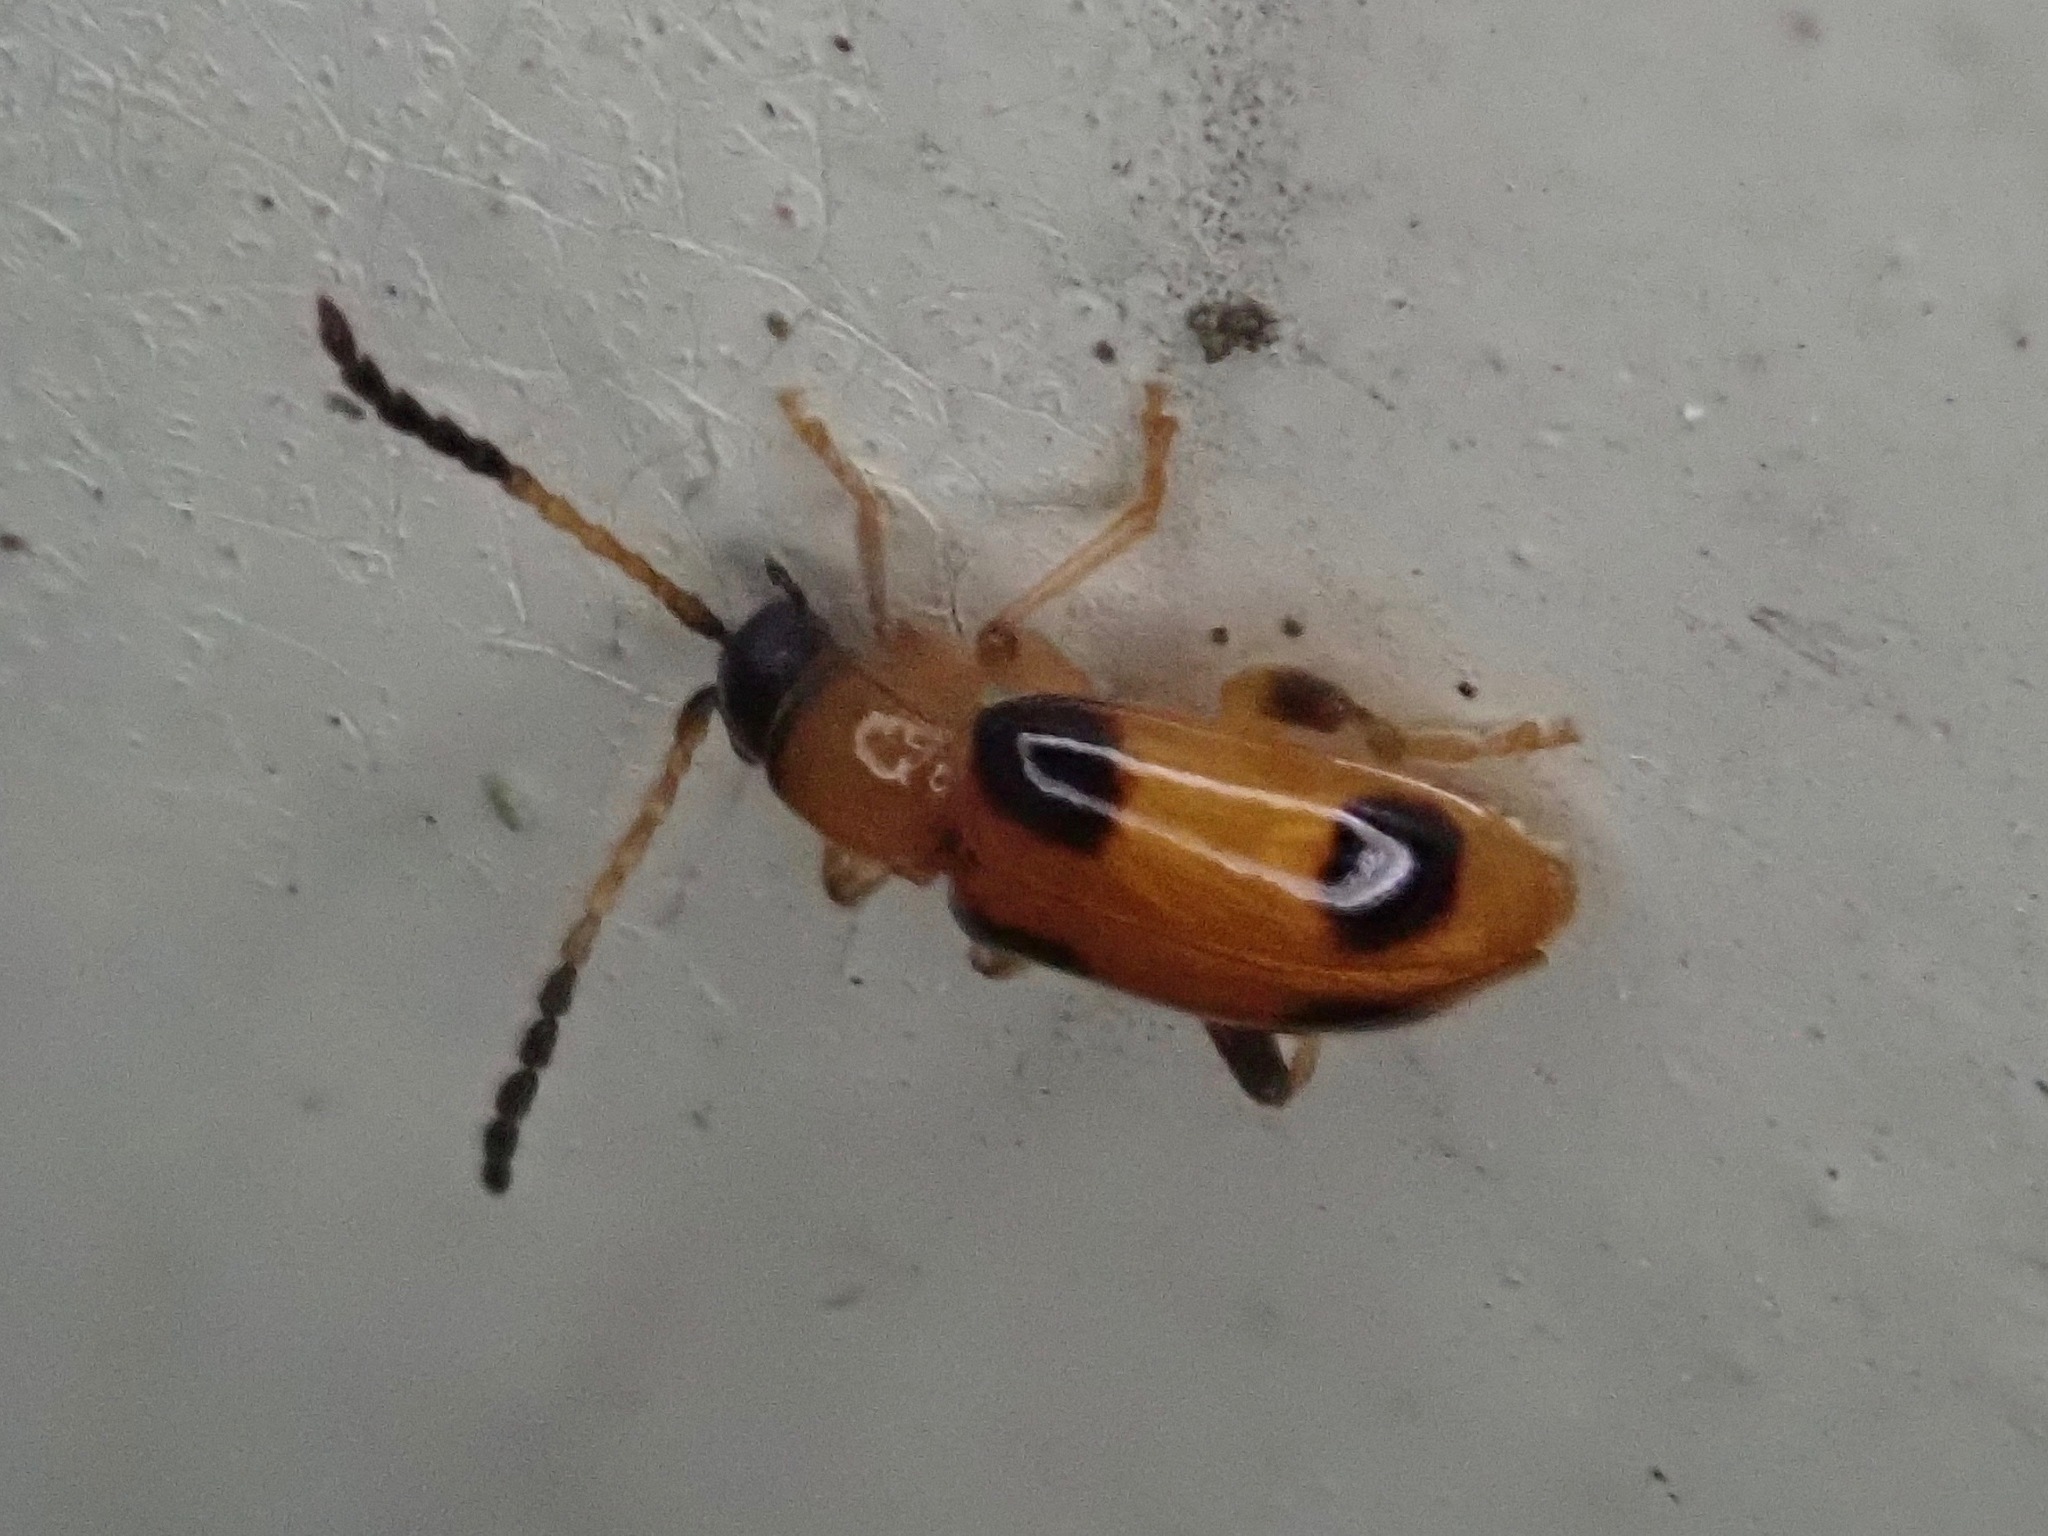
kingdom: Animalia
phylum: Arthropoda
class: Insecta
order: Coleoptera
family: Chrysomelidae
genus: Cornulactica
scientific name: Cornulactica
